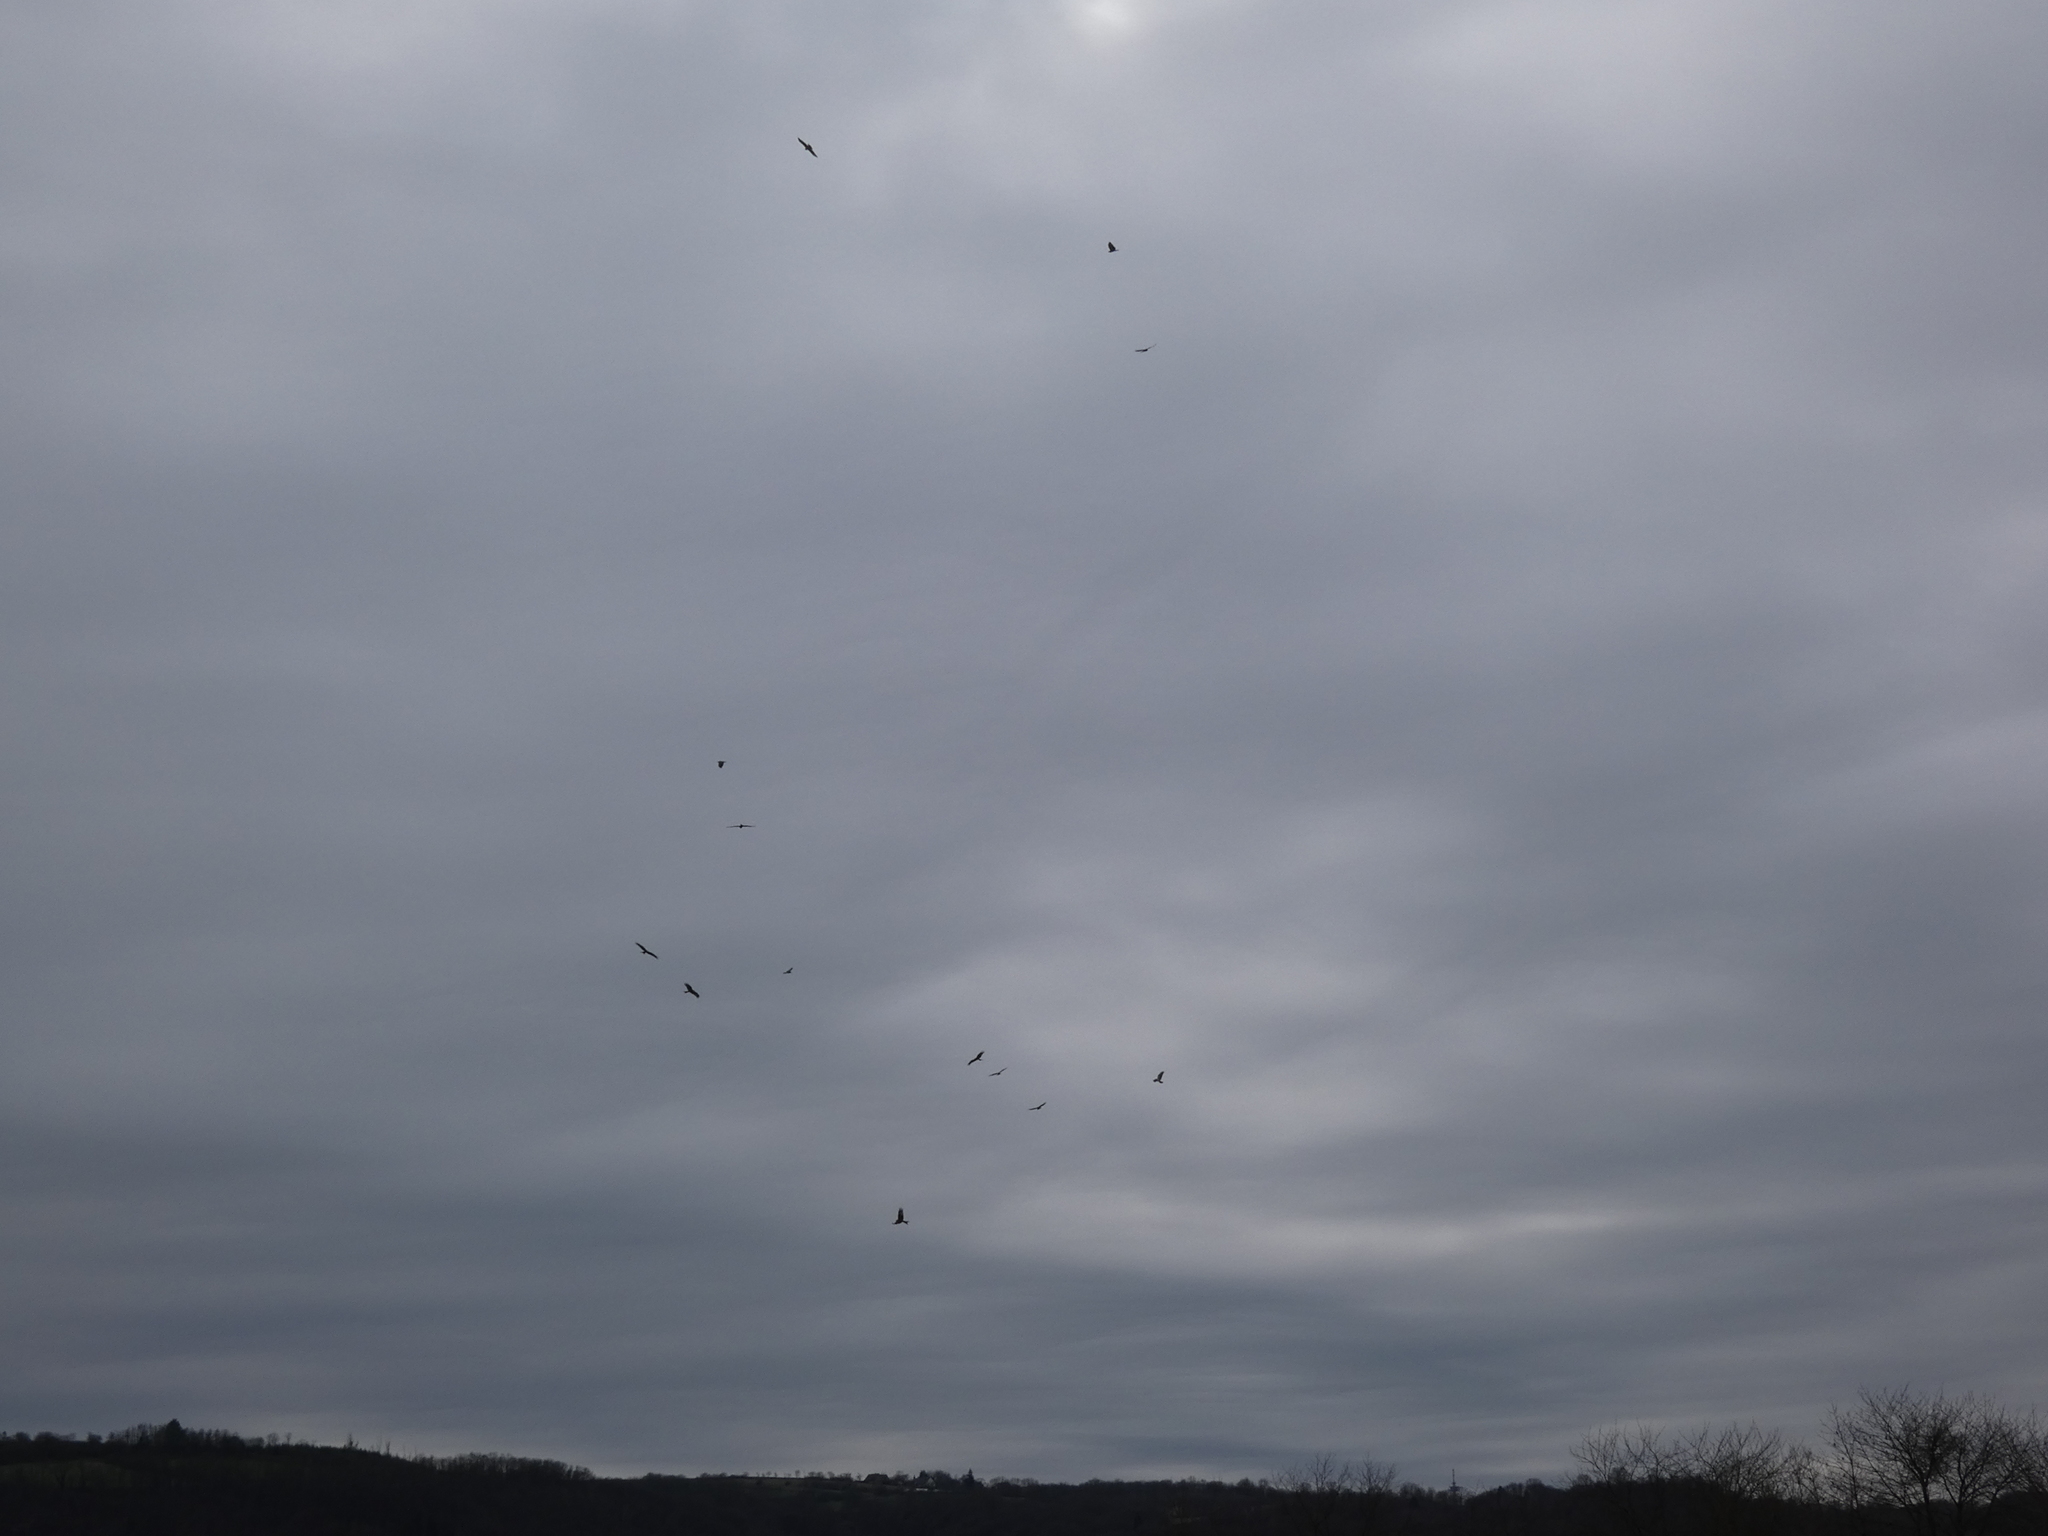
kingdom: Animalia
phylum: Chordata
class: Aves
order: Accipitriformes
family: Accipitridae
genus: Milvus
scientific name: Milvus milvus
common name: Red kite
